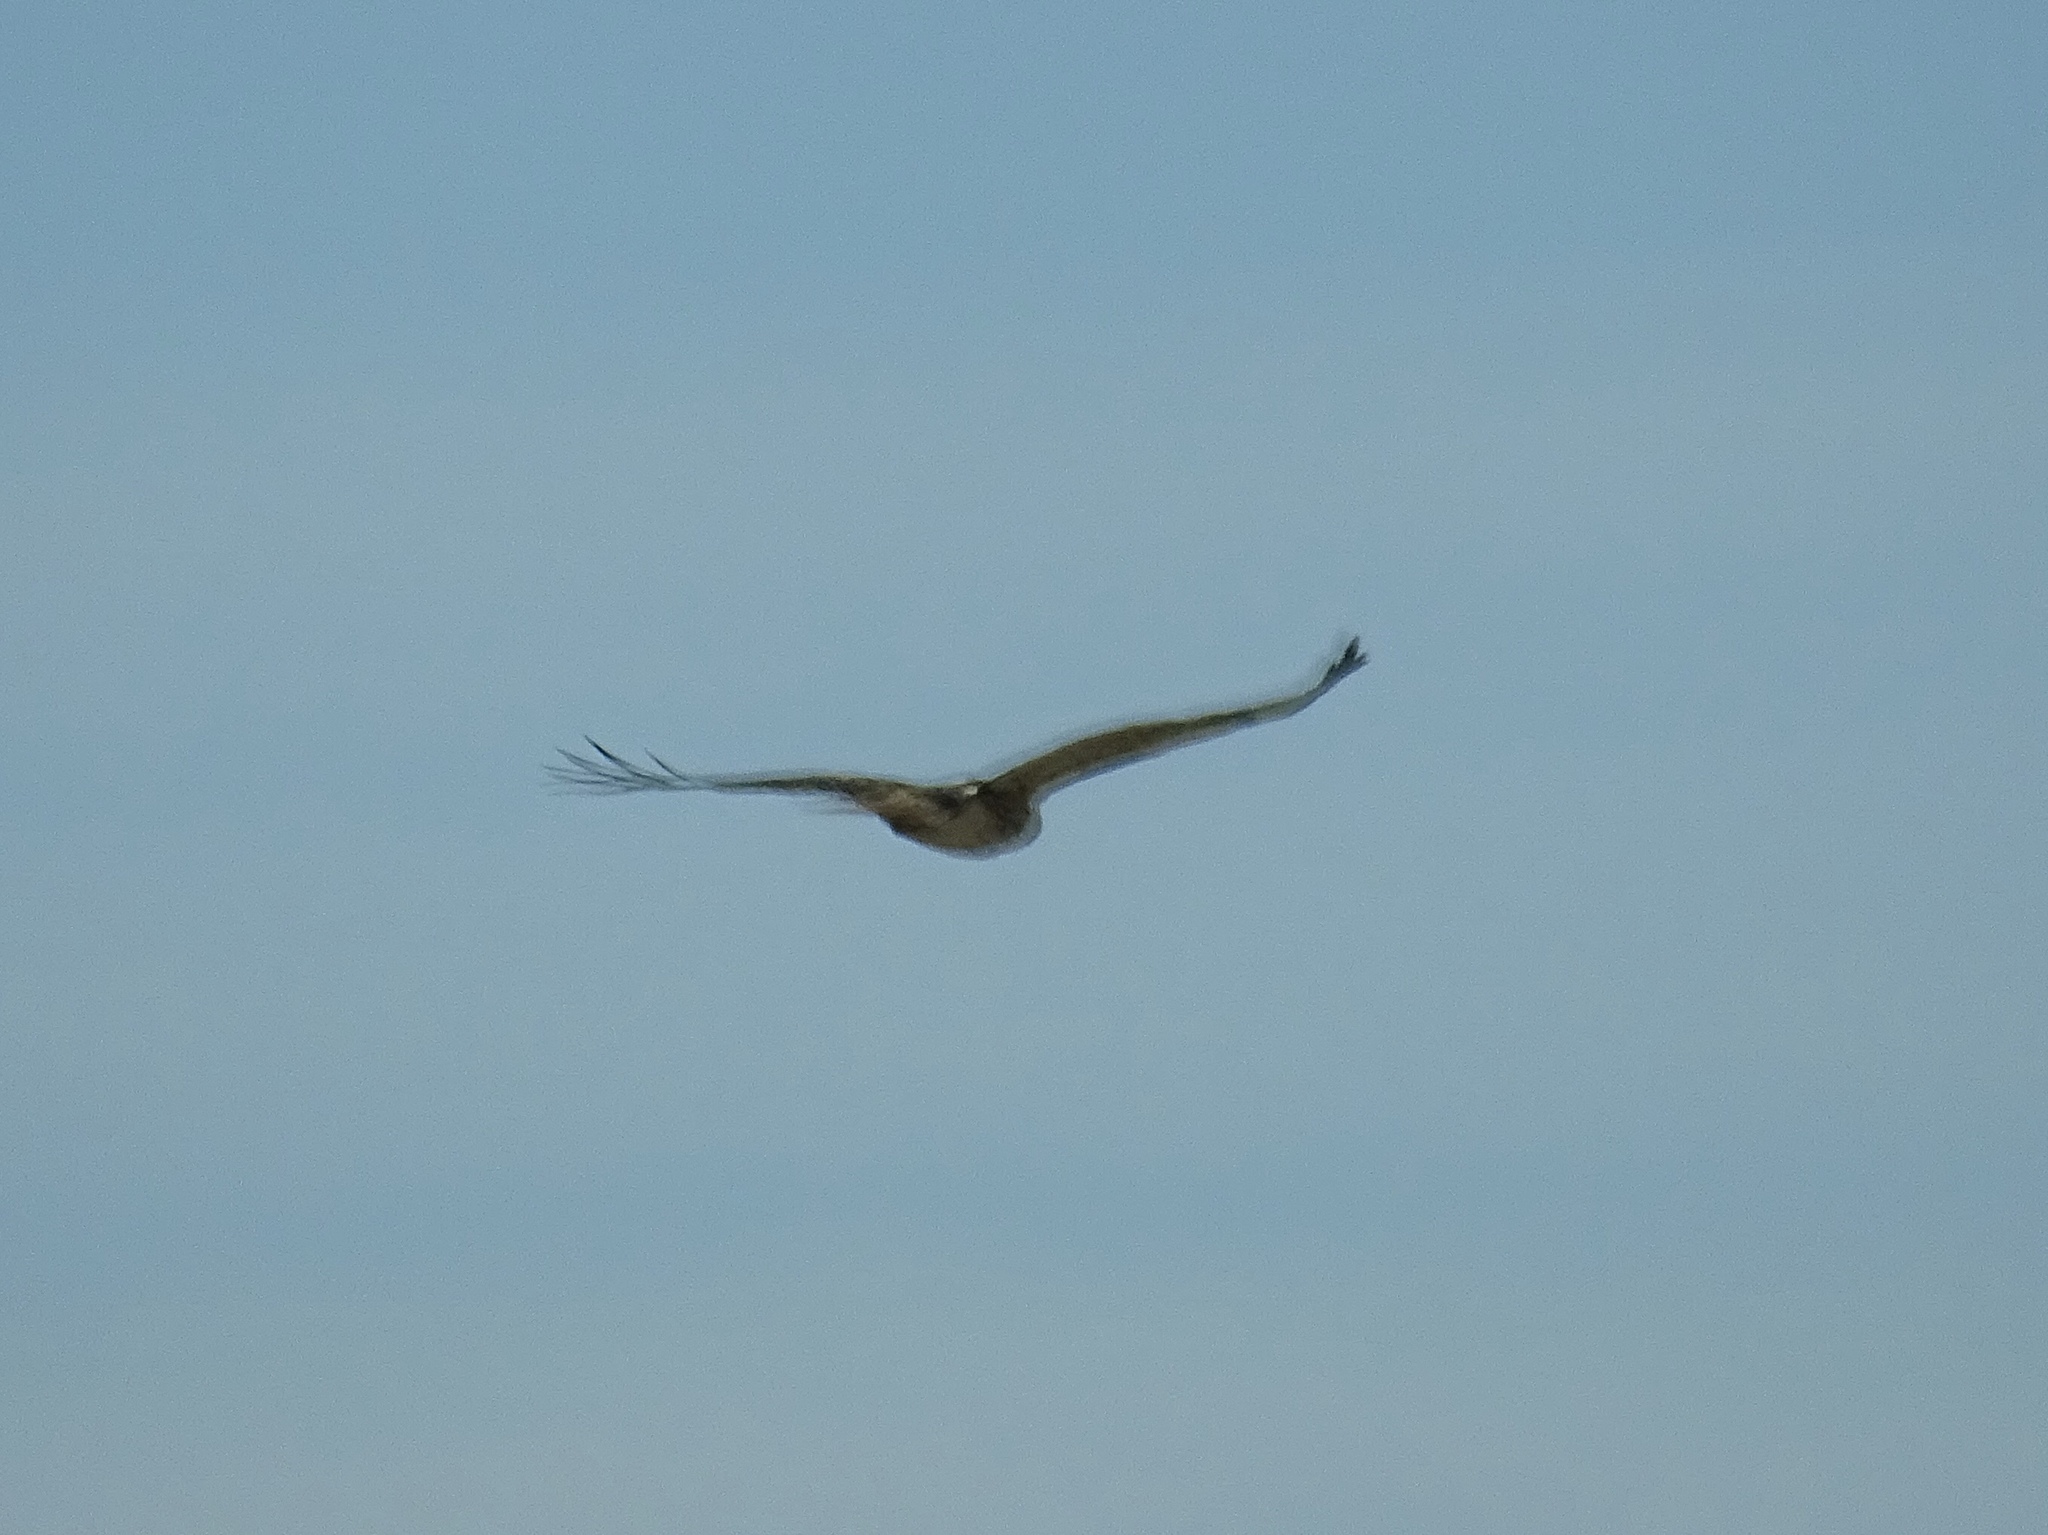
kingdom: Animalia
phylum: Chordata
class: Aves
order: Accipitriformes
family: Accipitridae
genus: Buteo
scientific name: Buteo jamaicensis
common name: Red-tailed hawk
